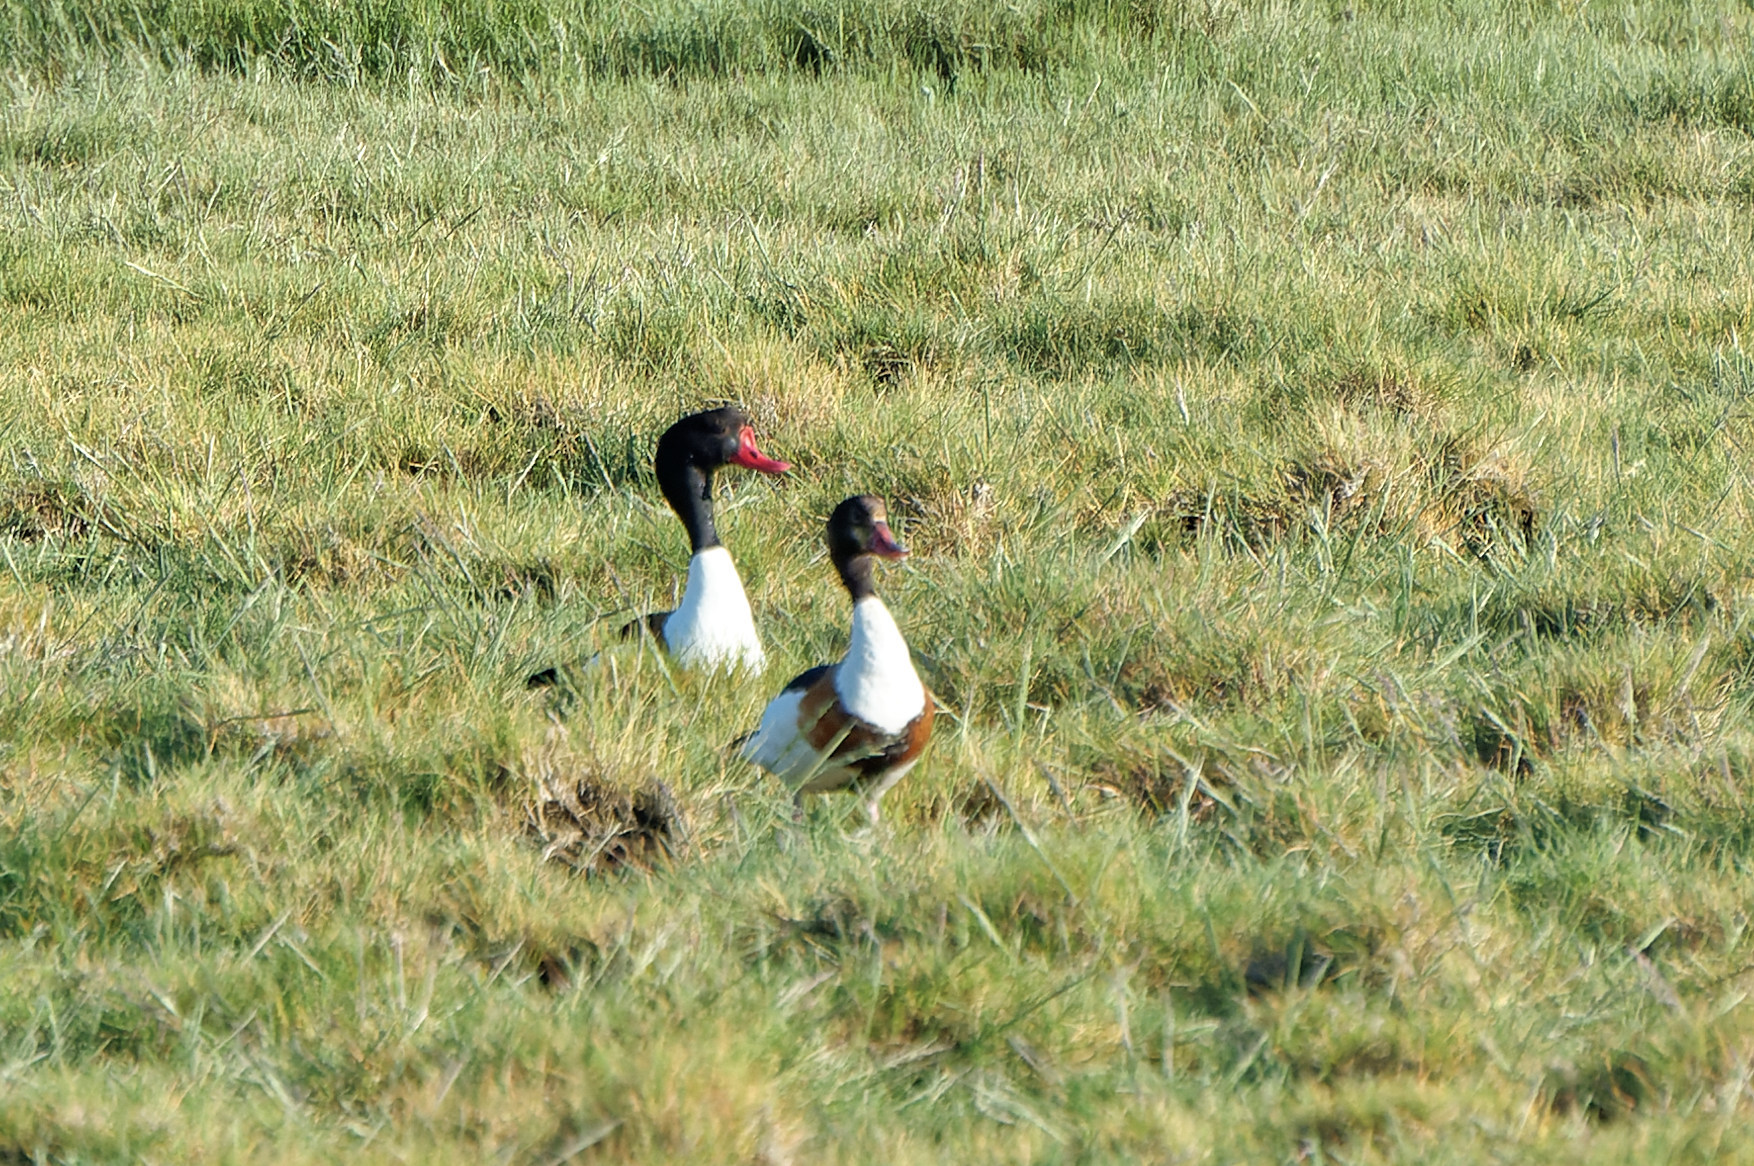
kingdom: Animalia
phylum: Chordata
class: Aves
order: Anseriformes
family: Anatidae
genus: Tadorna
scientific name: Tadorna tadorna
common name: Common shelduck
